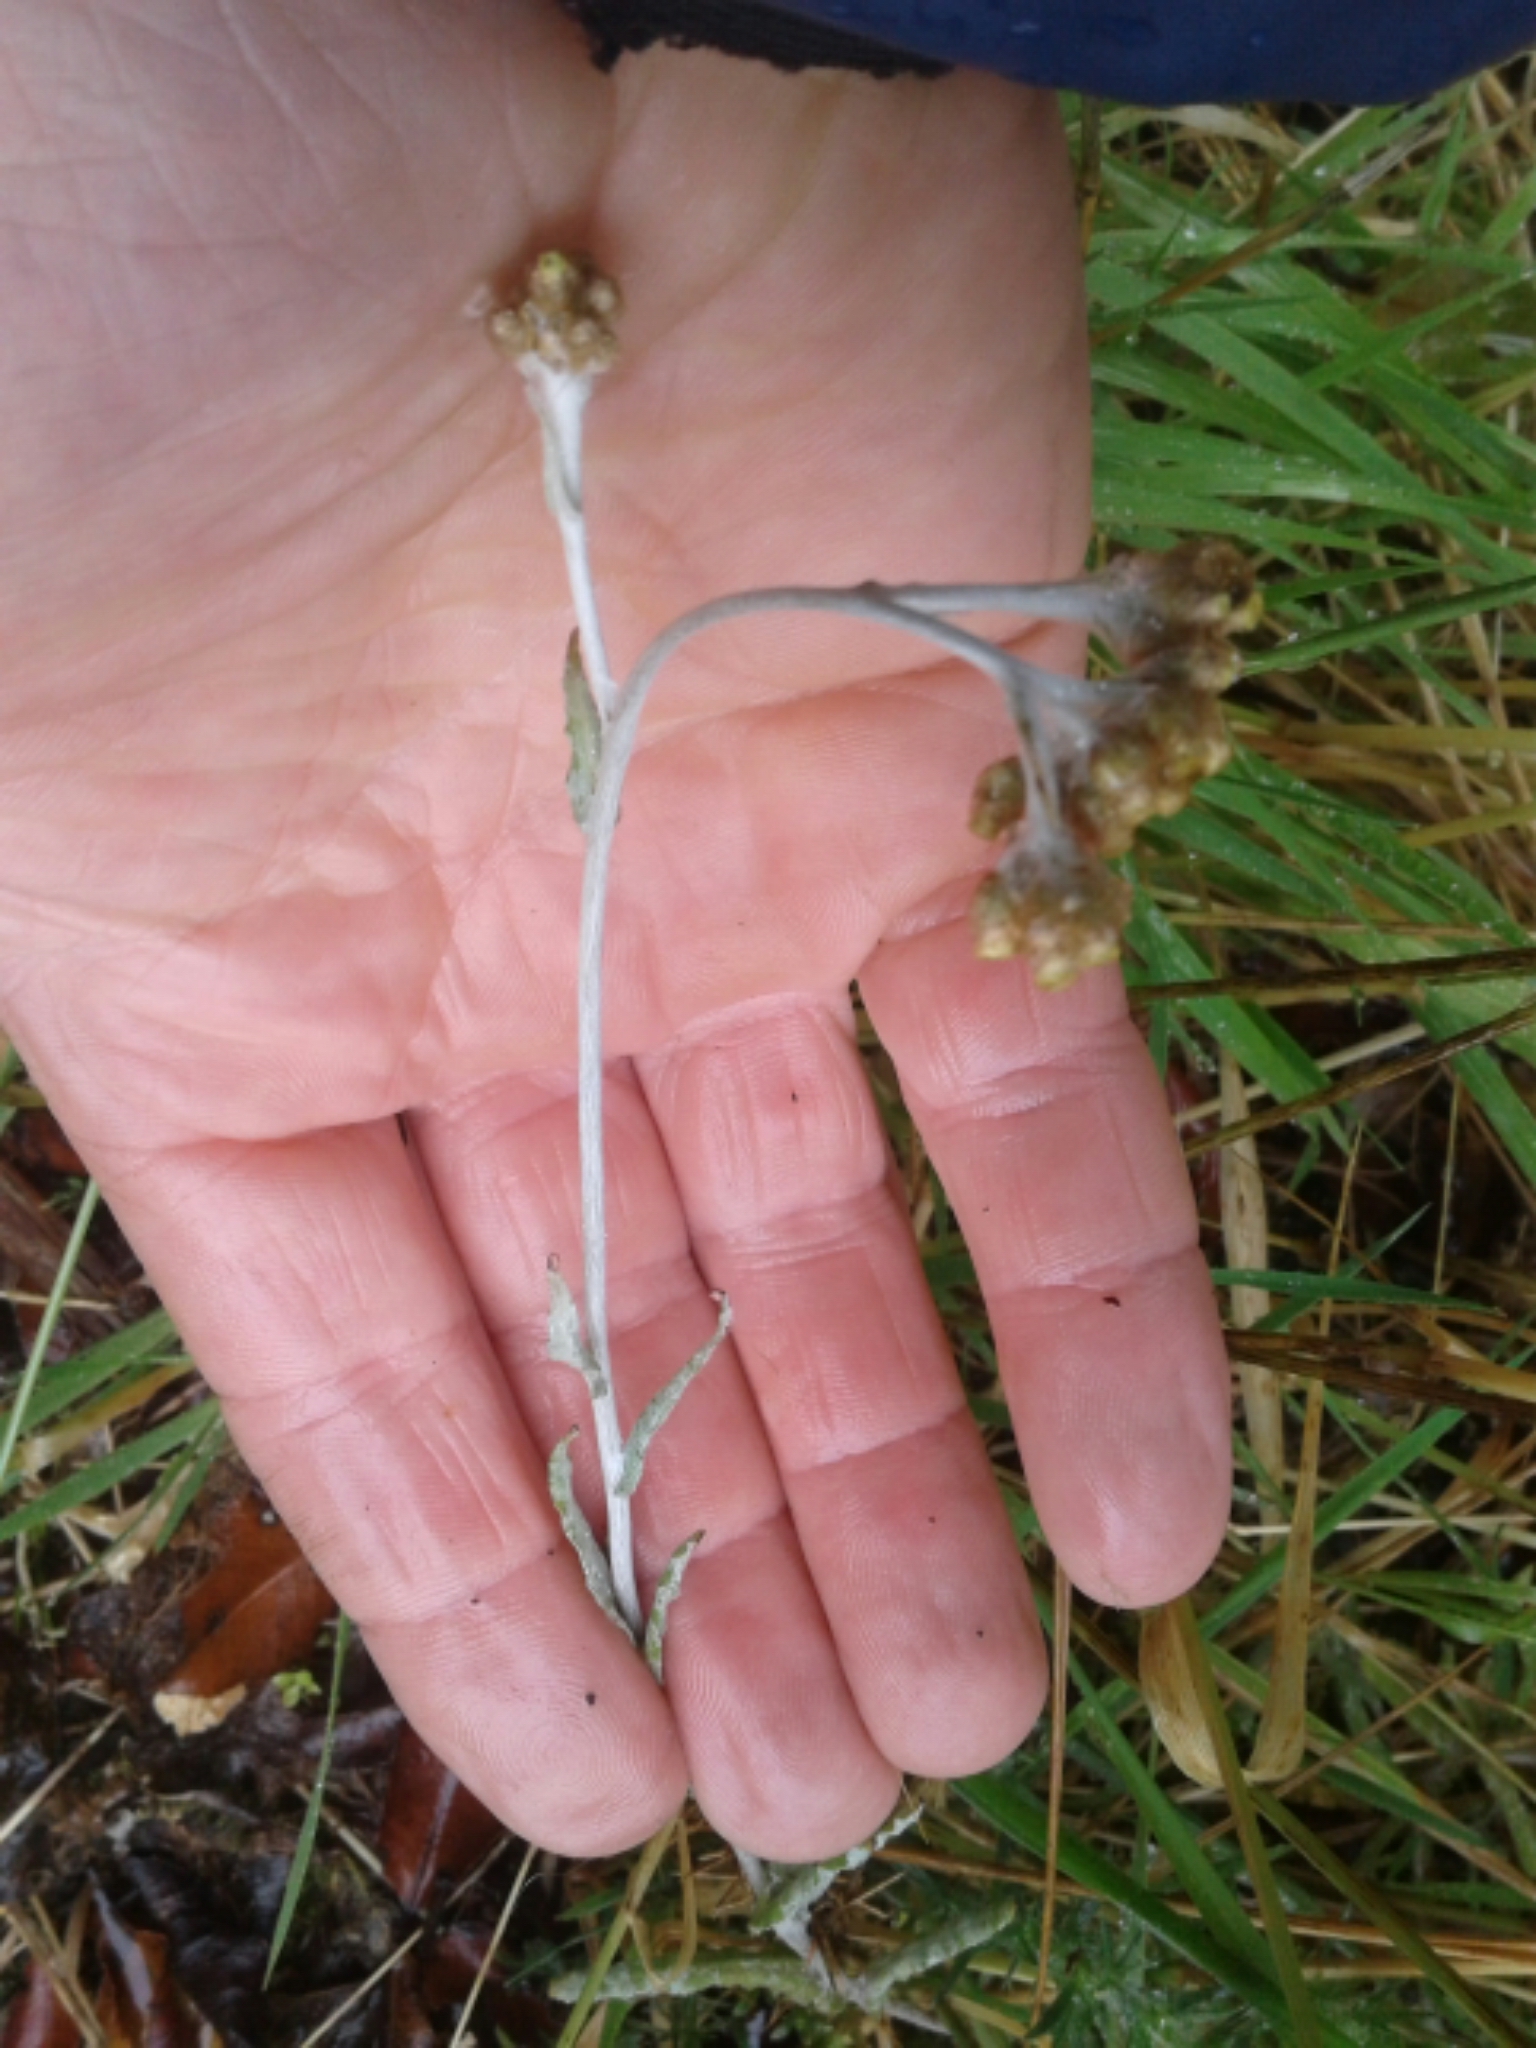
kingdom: Plantae
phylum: Tracheophyta
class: Magnoliopsida
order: Asterales
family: Asteraceae
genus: Helichrysum
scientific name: Helichrysum luteoalbum
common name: Daisy
